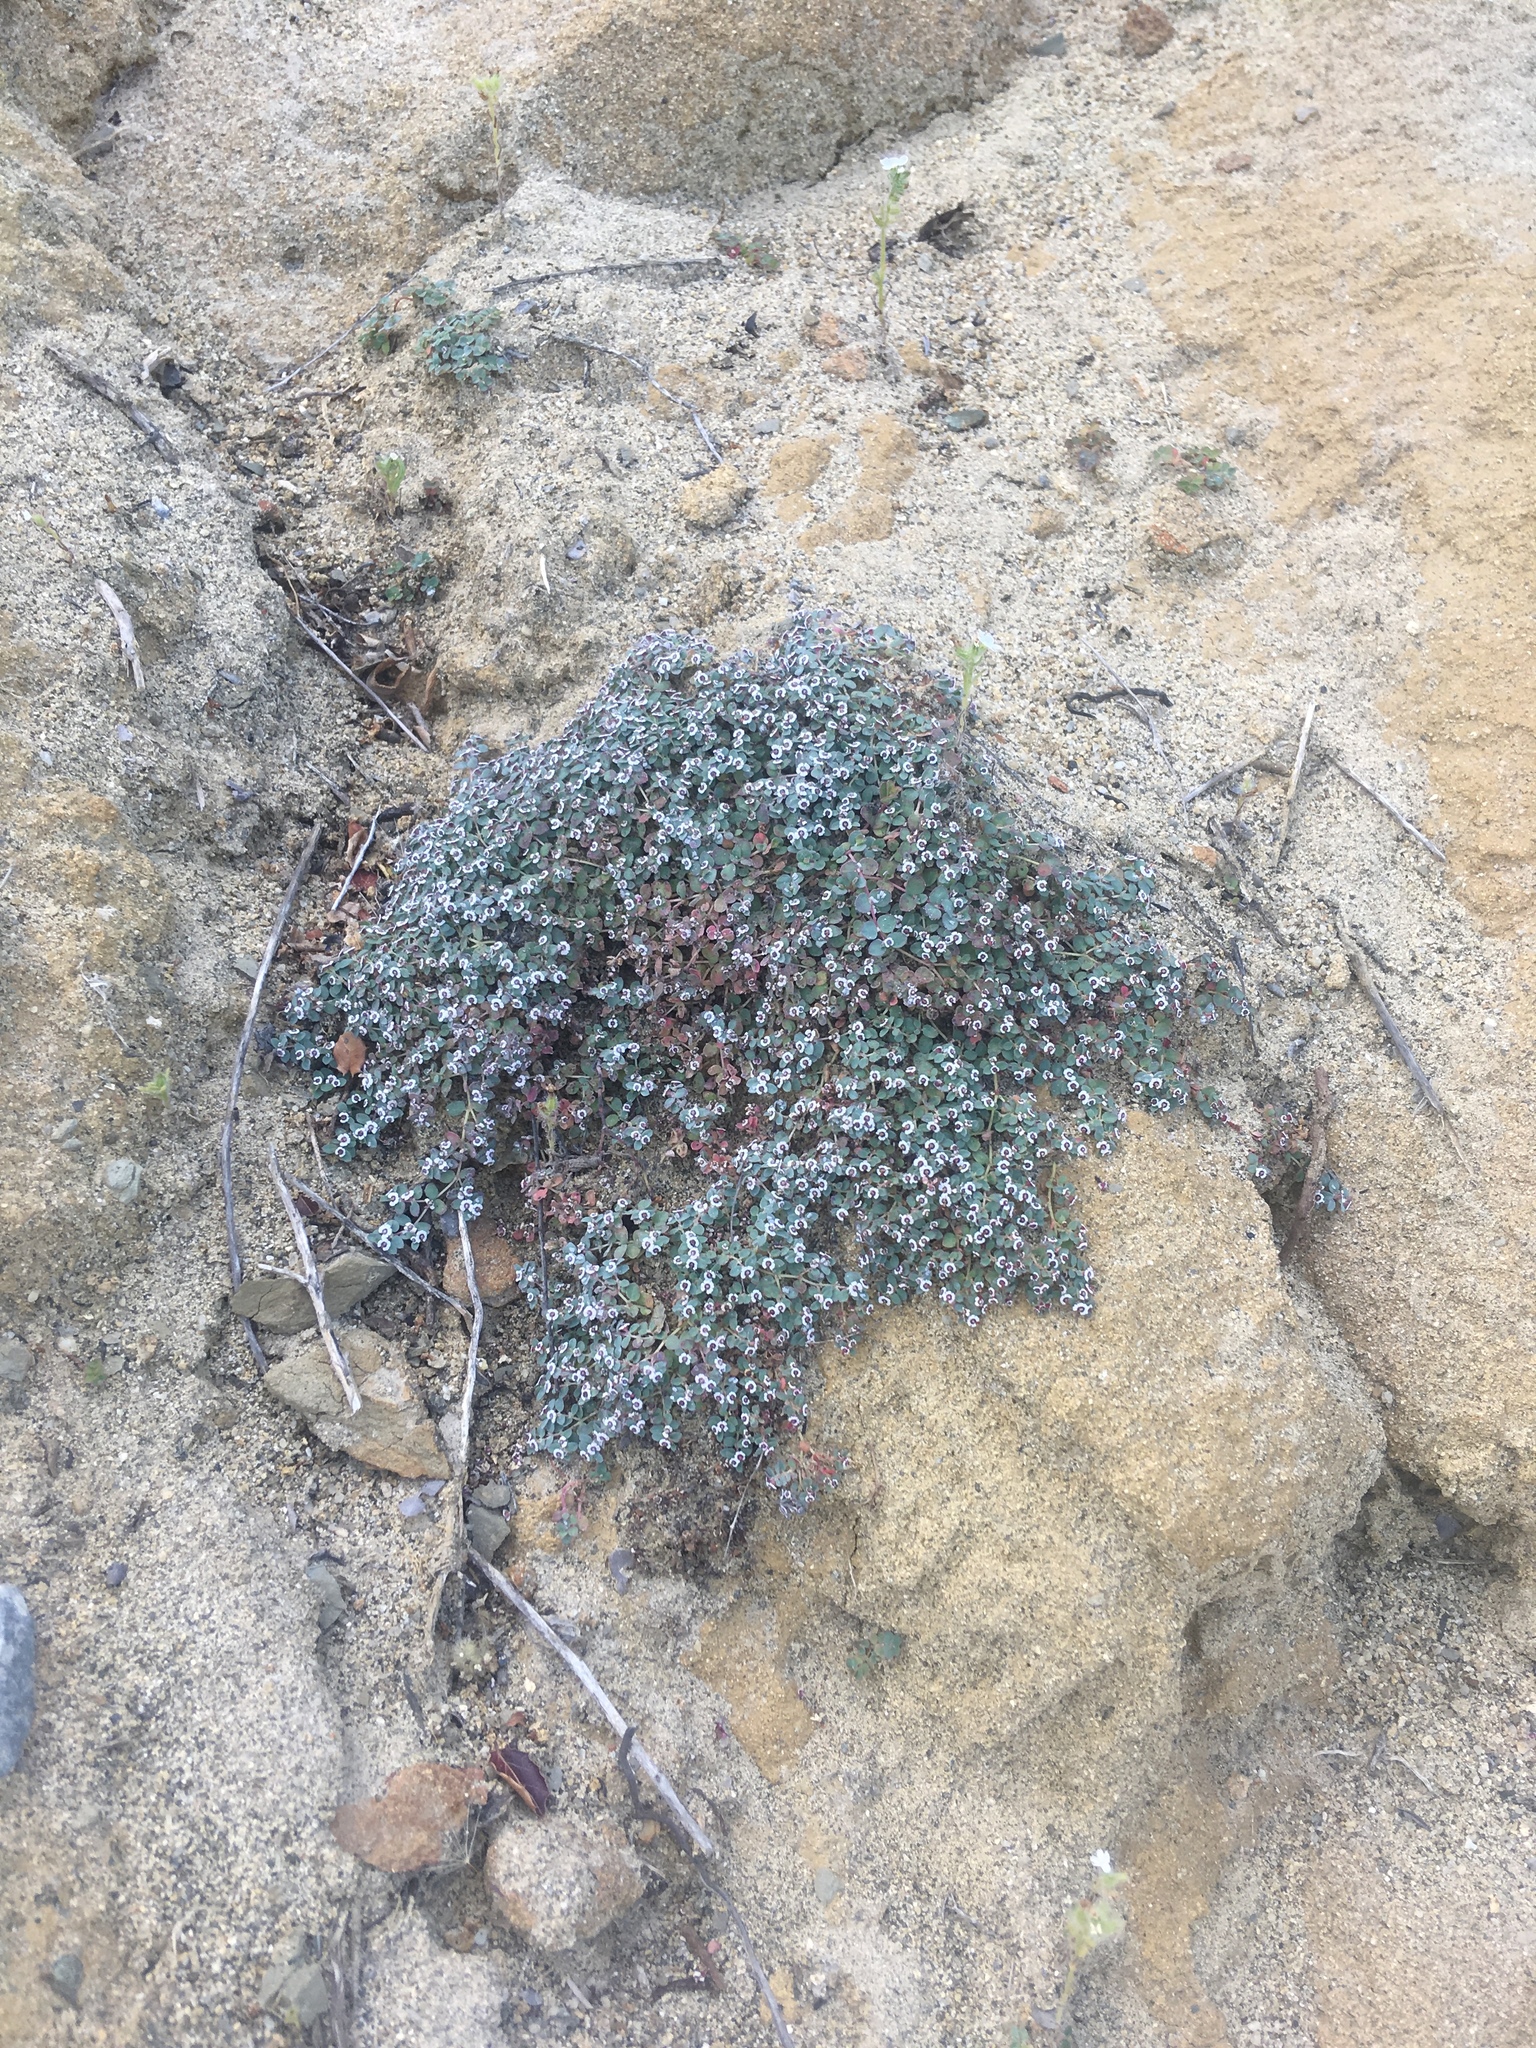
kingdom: Plantae
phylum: Tracheophyta
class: Magnoliopsida
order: Malpighiales
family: Euphorbiaceae
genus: Euphorbia
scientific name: Euphorbia polycarpa
